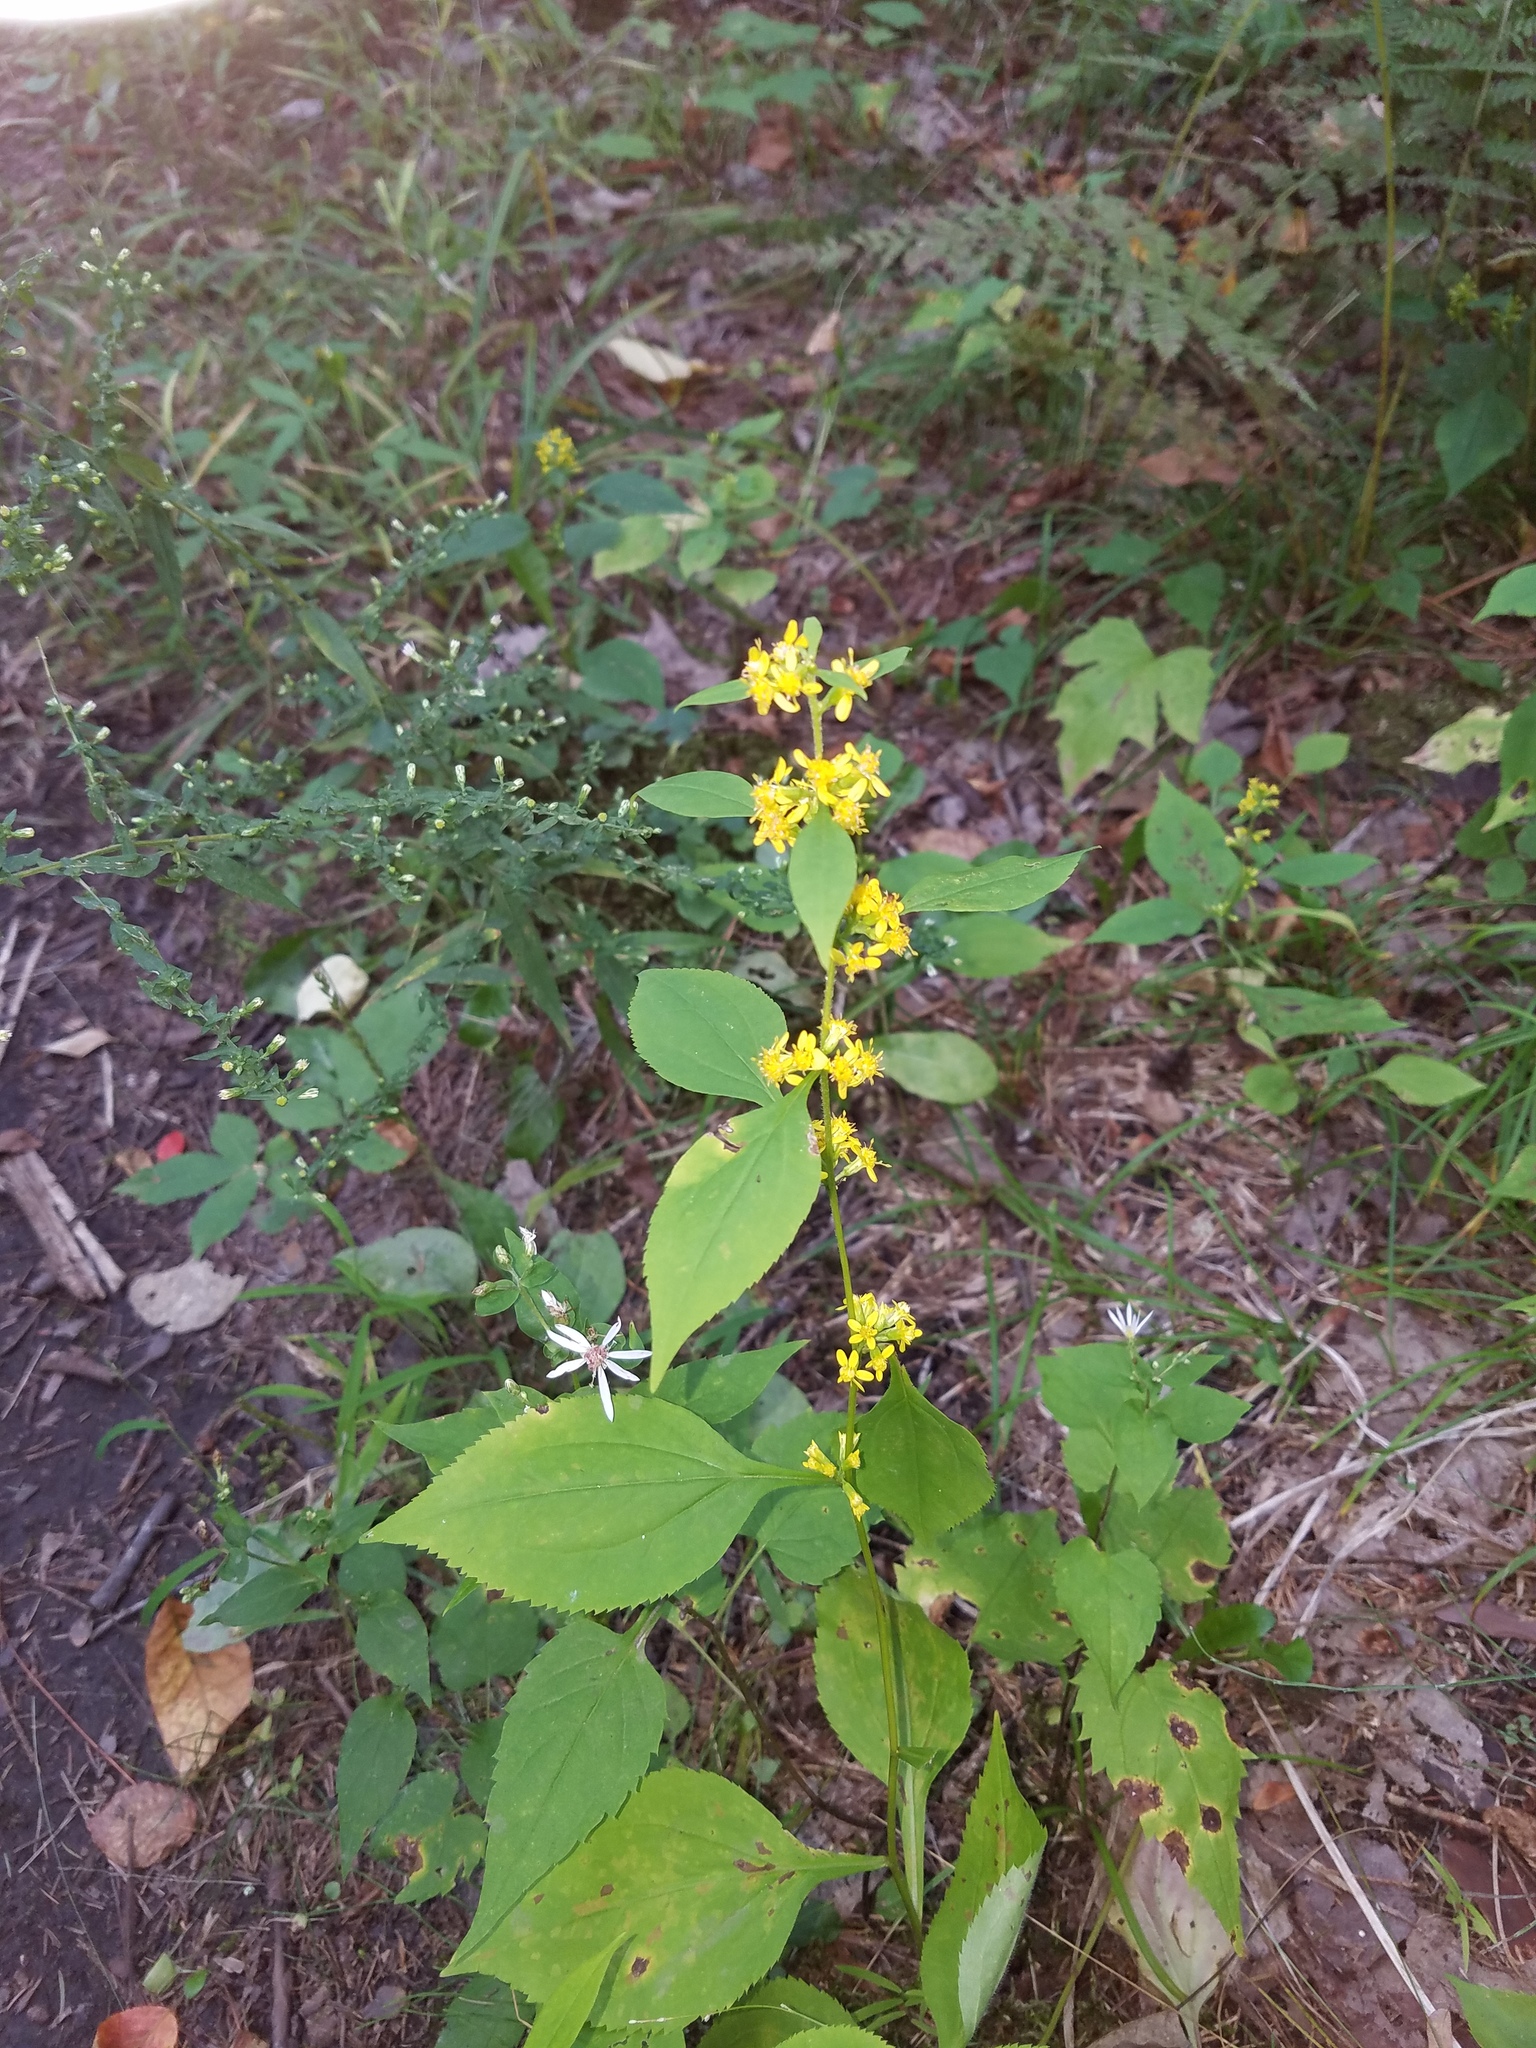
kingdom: Plantae
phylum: Tracheophyta
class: Magnoliopsida
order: Asterales
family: Asteraceae
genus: Solidago
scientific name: Solidago flexicaulis
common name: Zig-zag goldenrod
